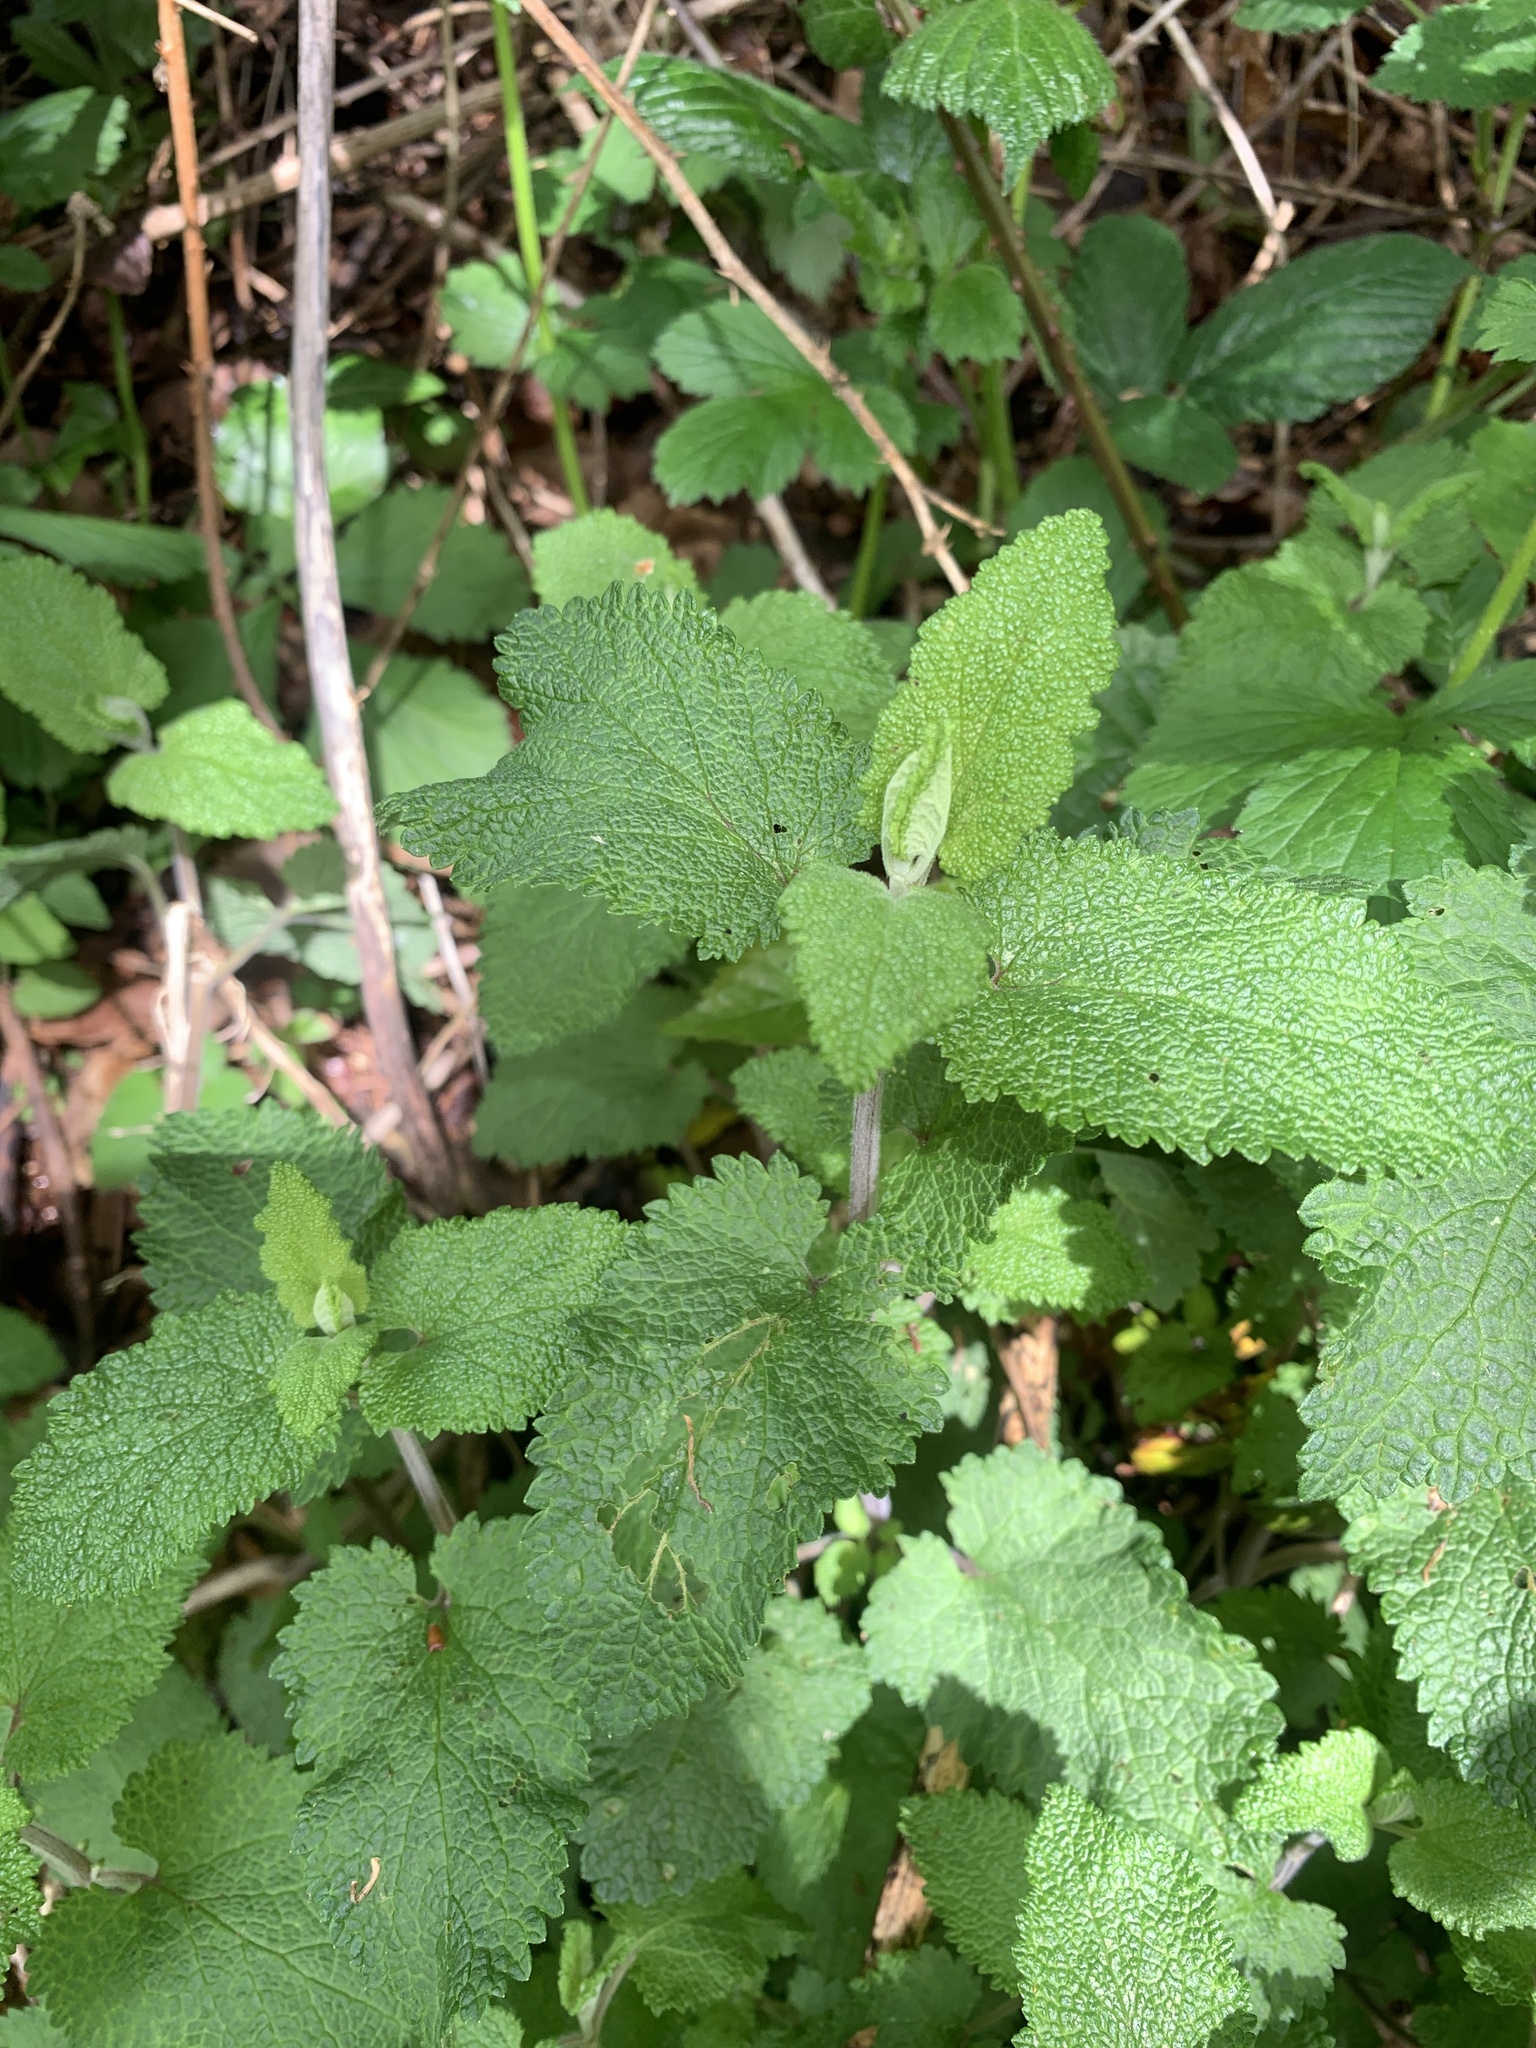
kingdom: Plantae
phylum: Tracheophyta
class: Magnoliopsida
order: Lamiales
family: Lamiaceae
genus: Teucrium
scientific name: Teucrium scorodonia
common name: Woodland germander
